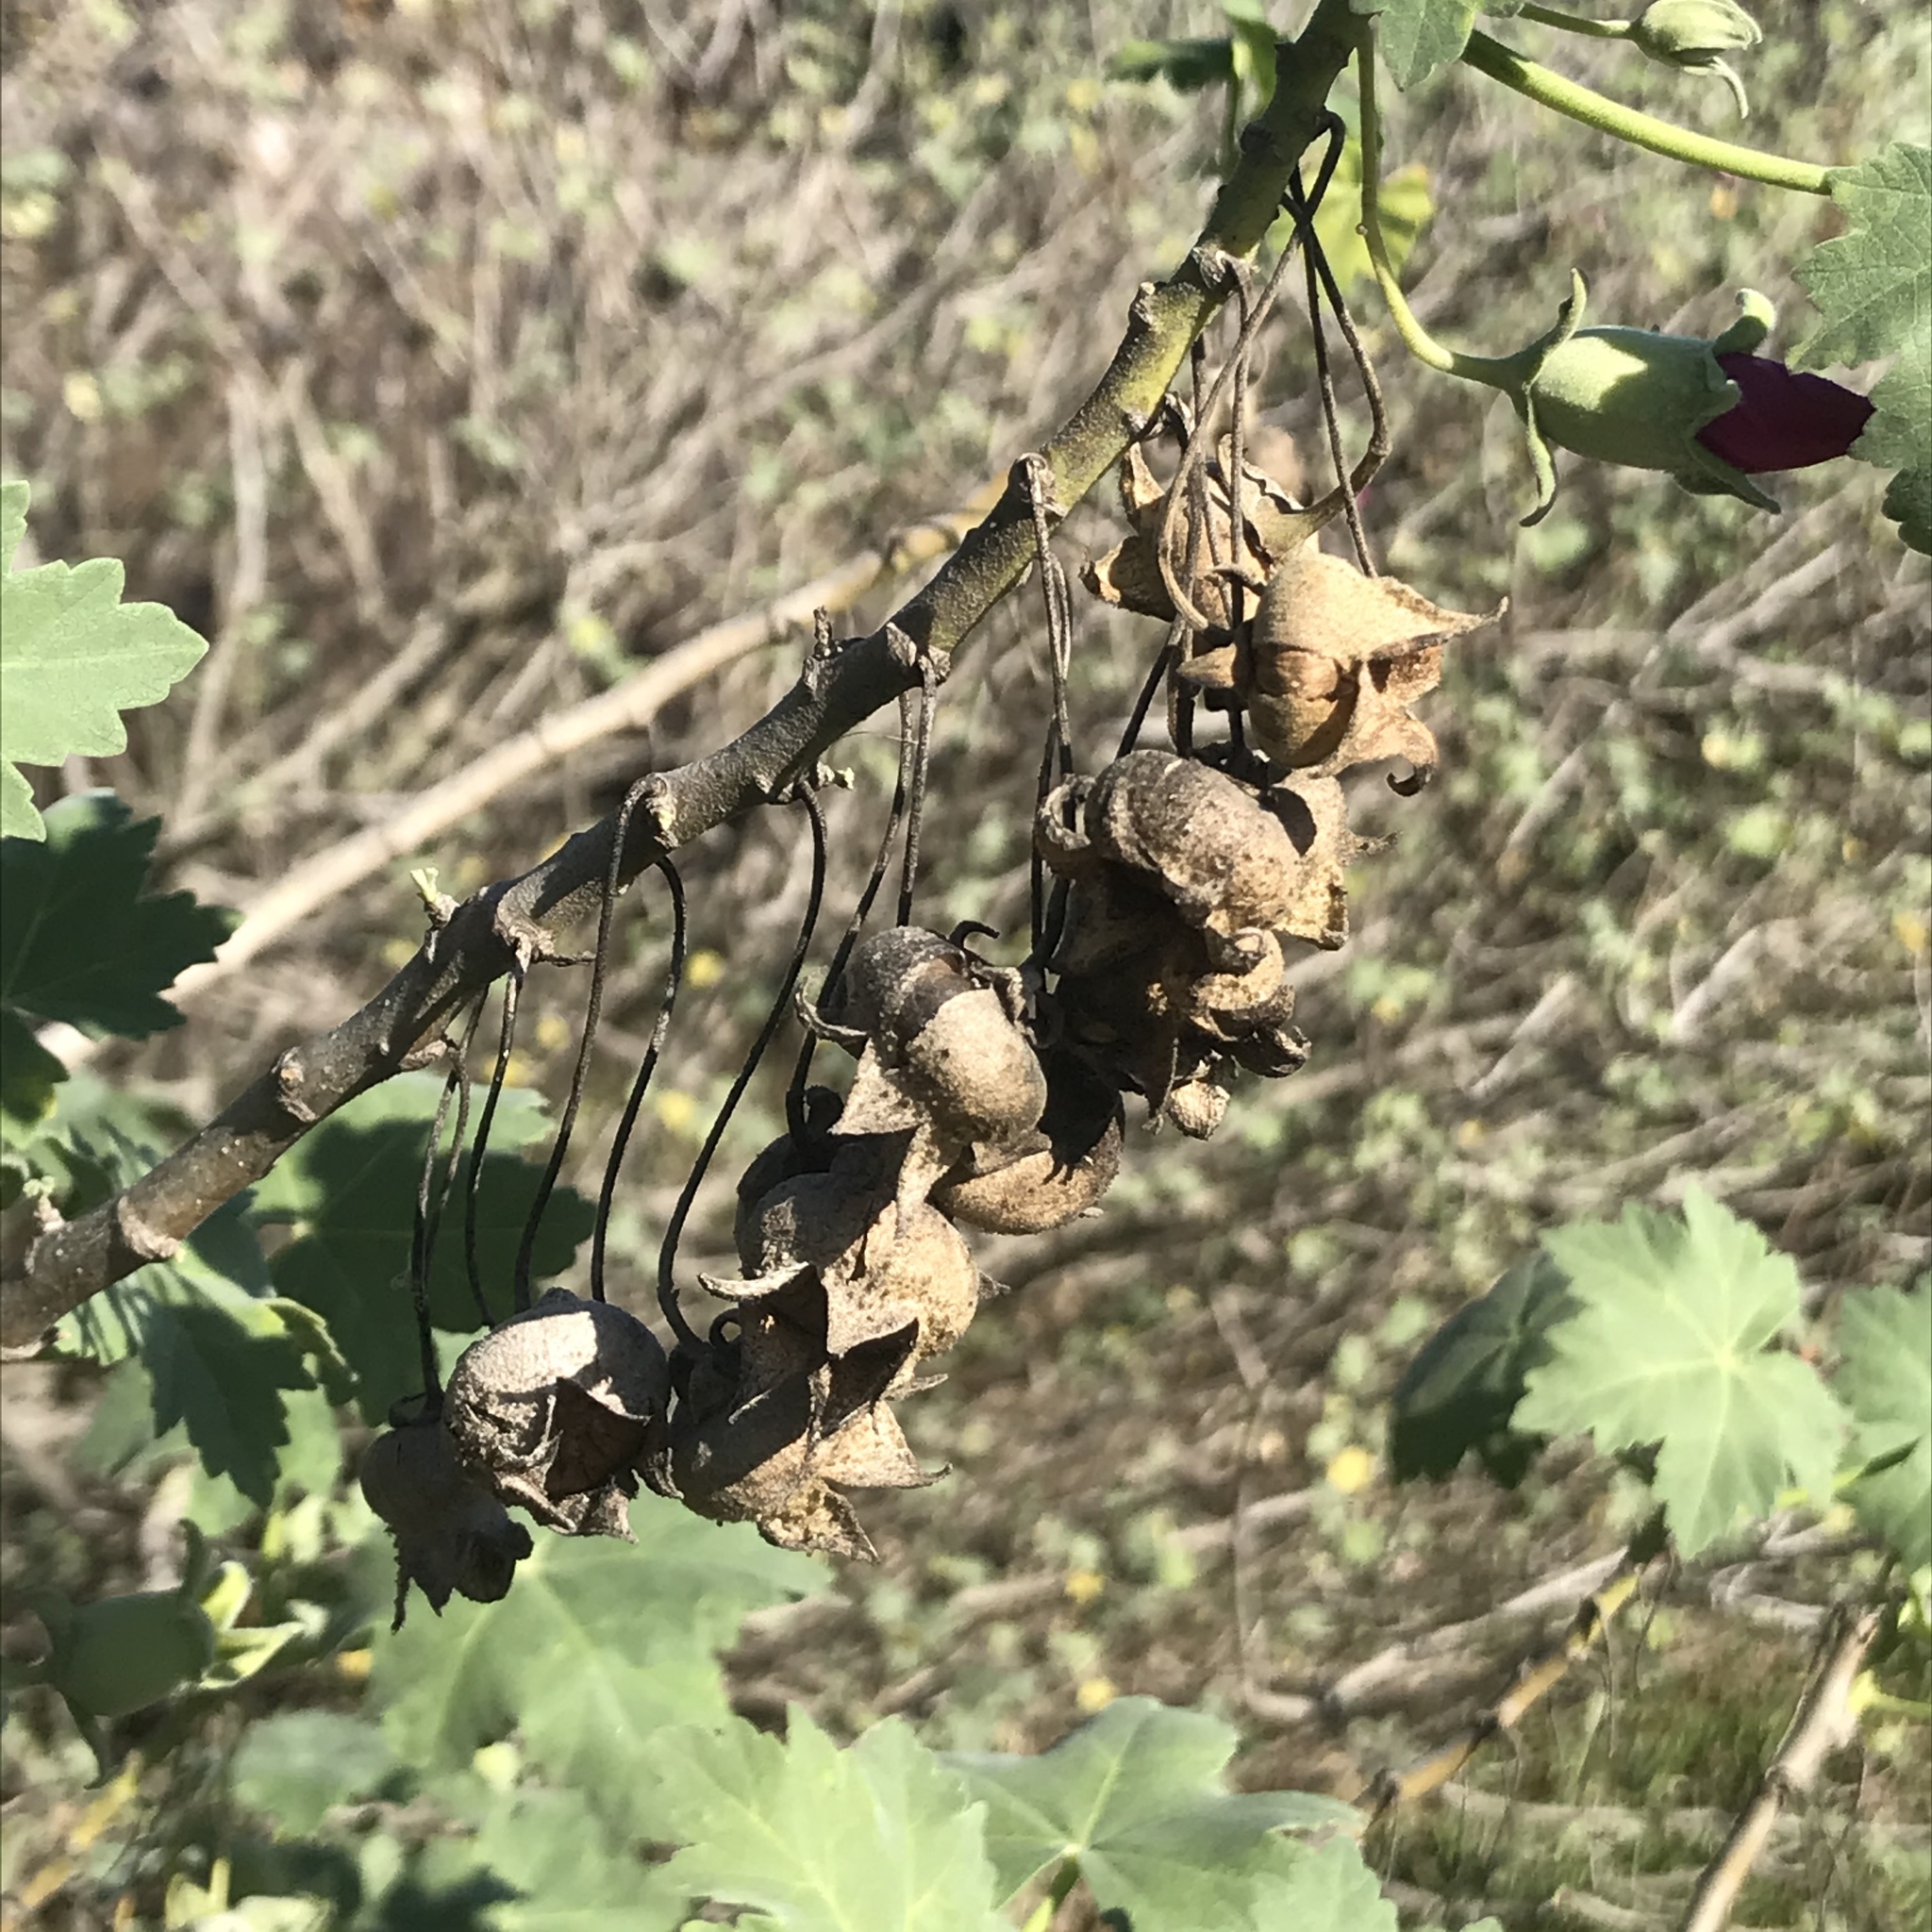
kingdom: Plantae
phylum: Tracheophyta
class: Magnoliopsida
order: Malvales
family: Malvaceae
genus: Malva
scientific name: Malva assurgentiflora
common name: Island mallow
